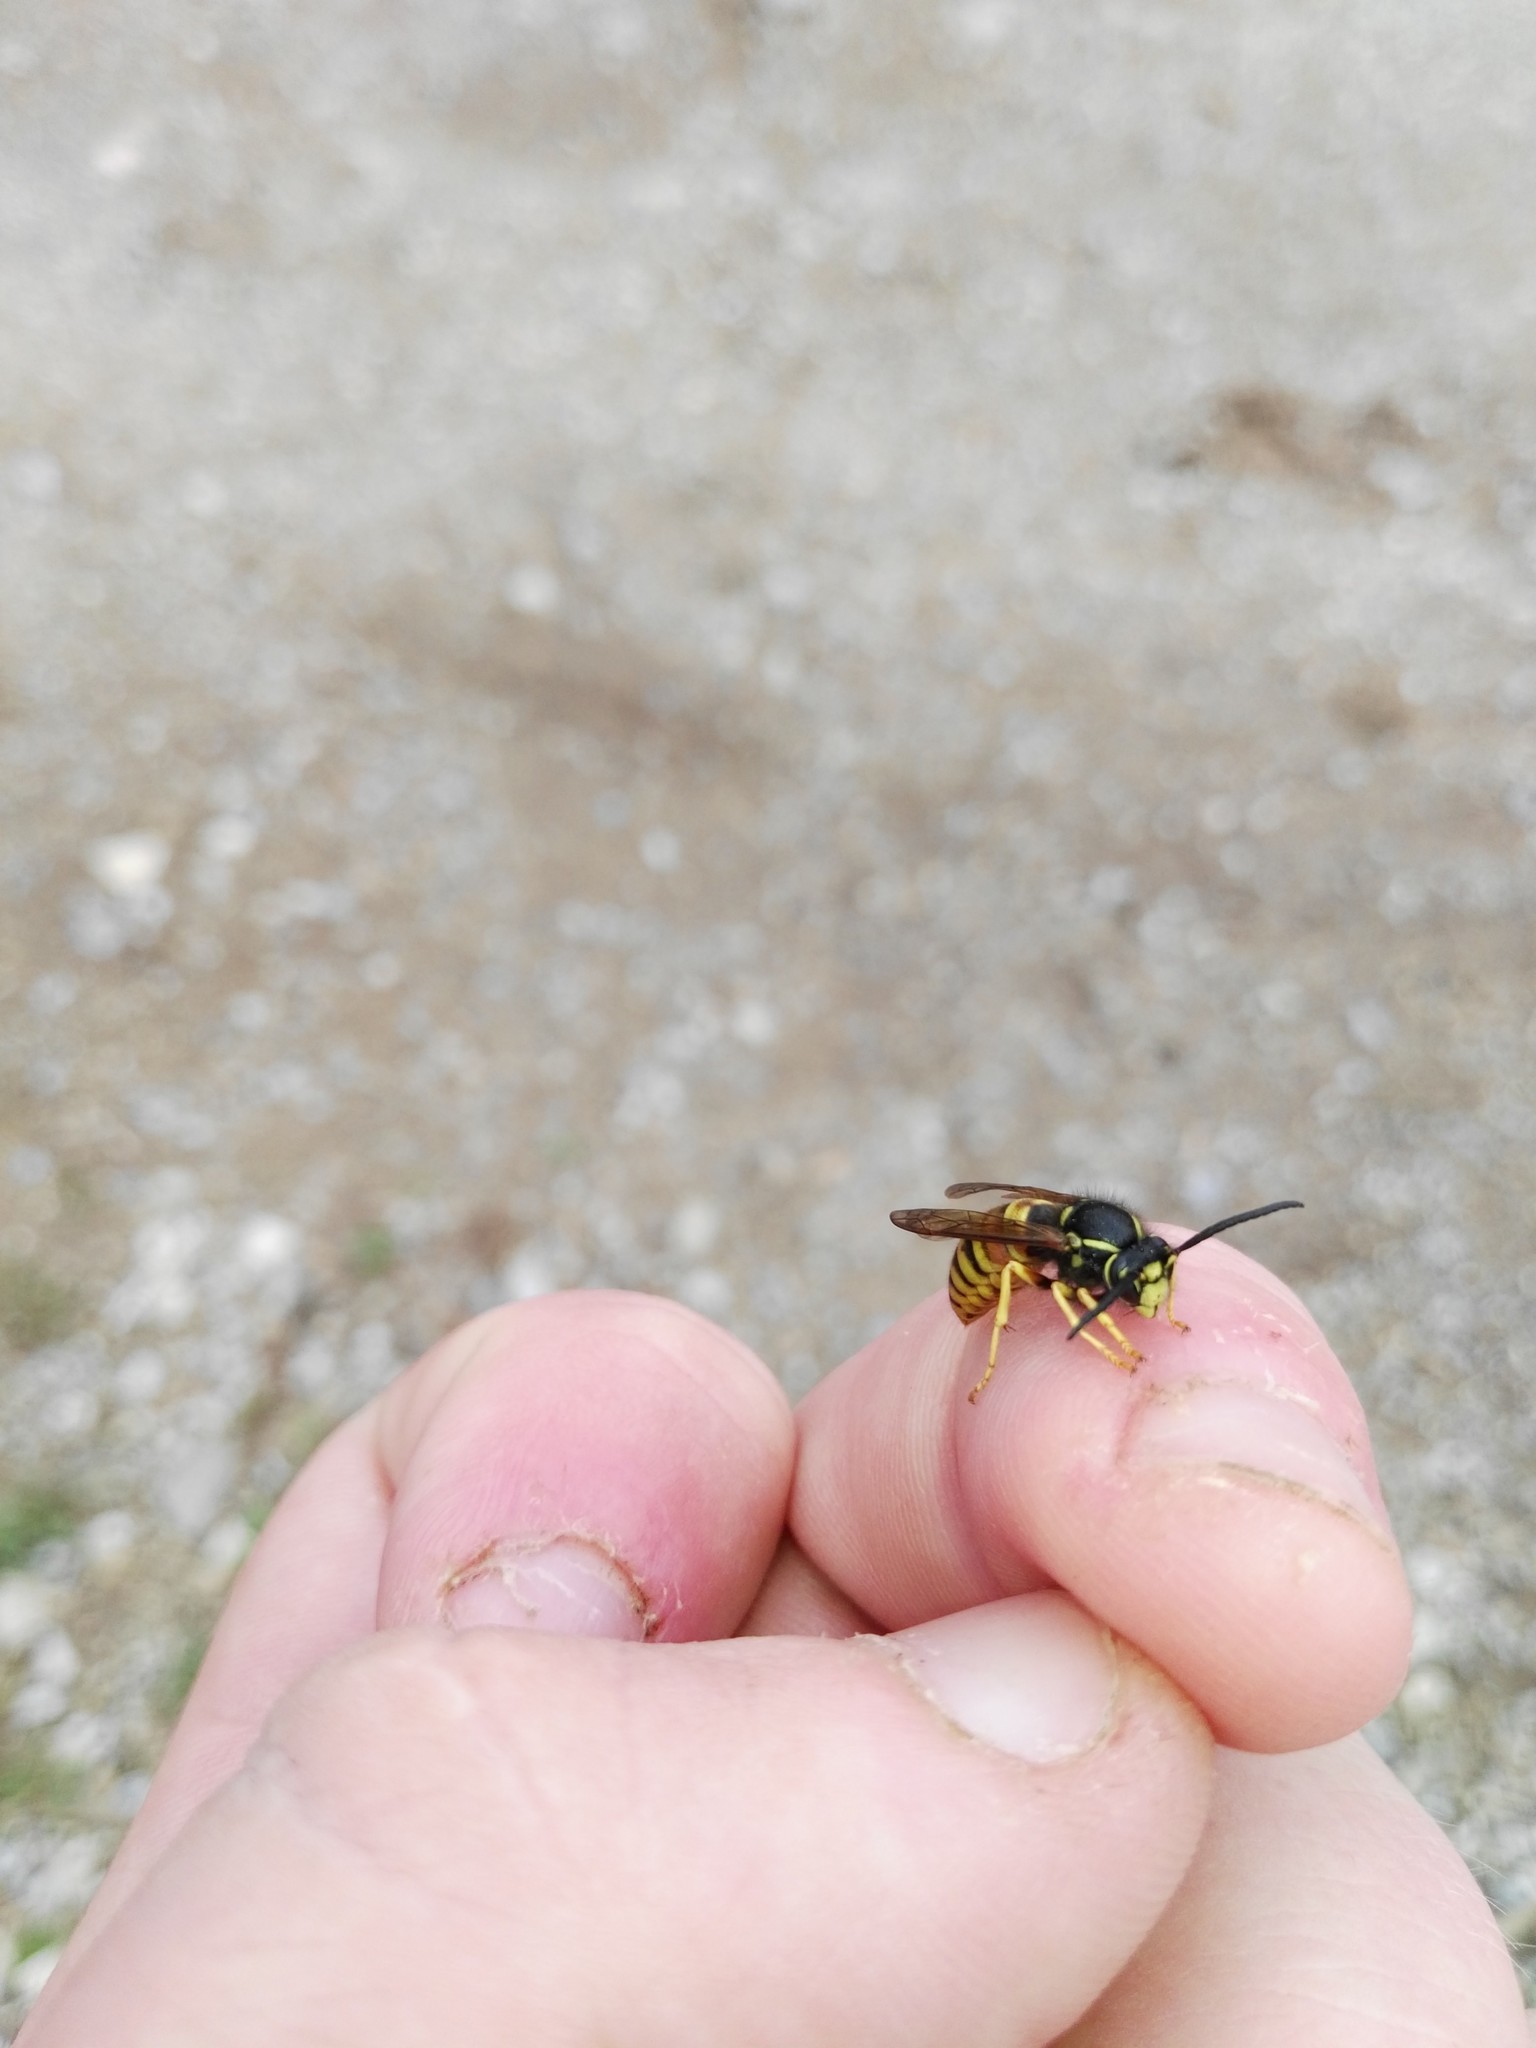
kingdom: Animalia
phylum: Arthropoda
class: Insecta
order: Hymenoptera
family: Vespidae
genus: Vespula
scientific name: Vespula rufa
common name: Red wasp
